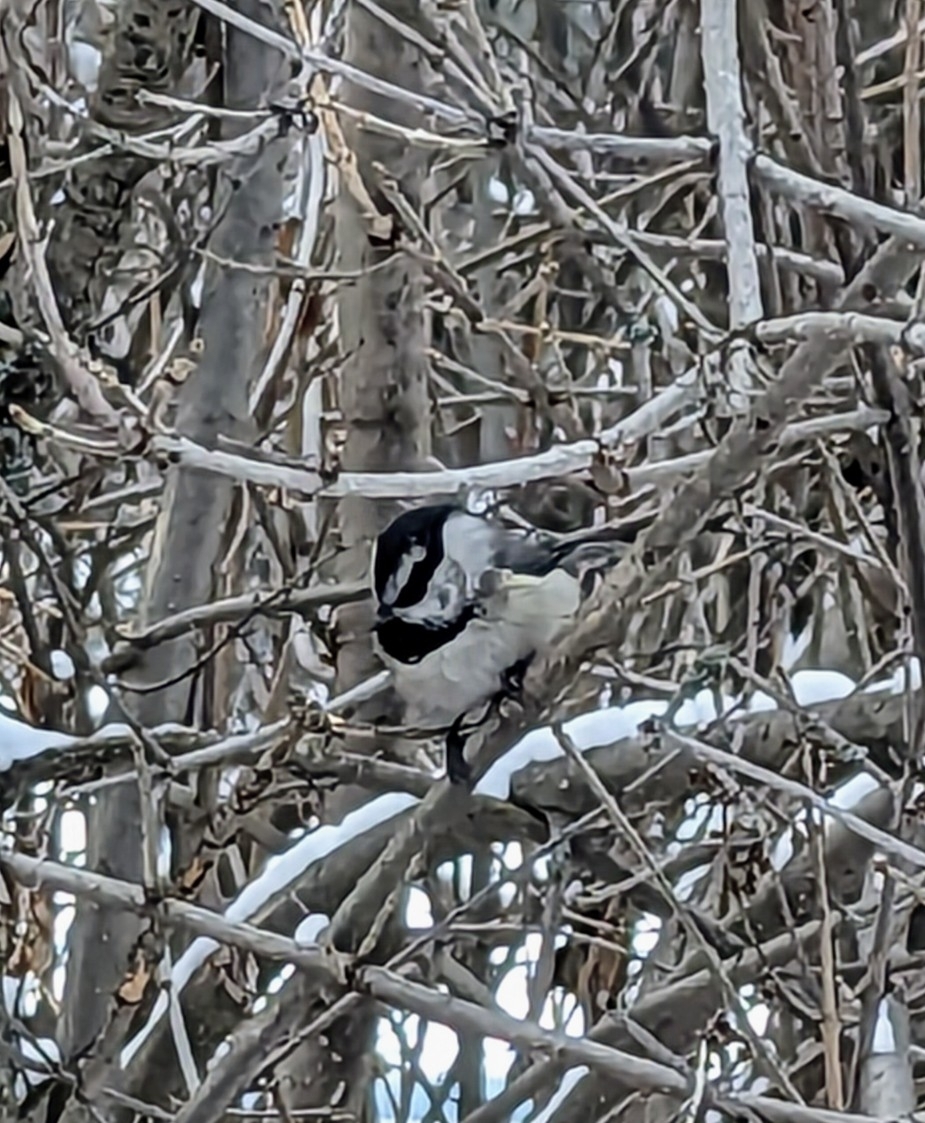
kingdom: Animalia
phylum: Chordata
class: Aves
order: Passeriformes
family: Paridae
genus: Poecile
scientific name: Poecile gambeli
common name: Mountain chickadee
